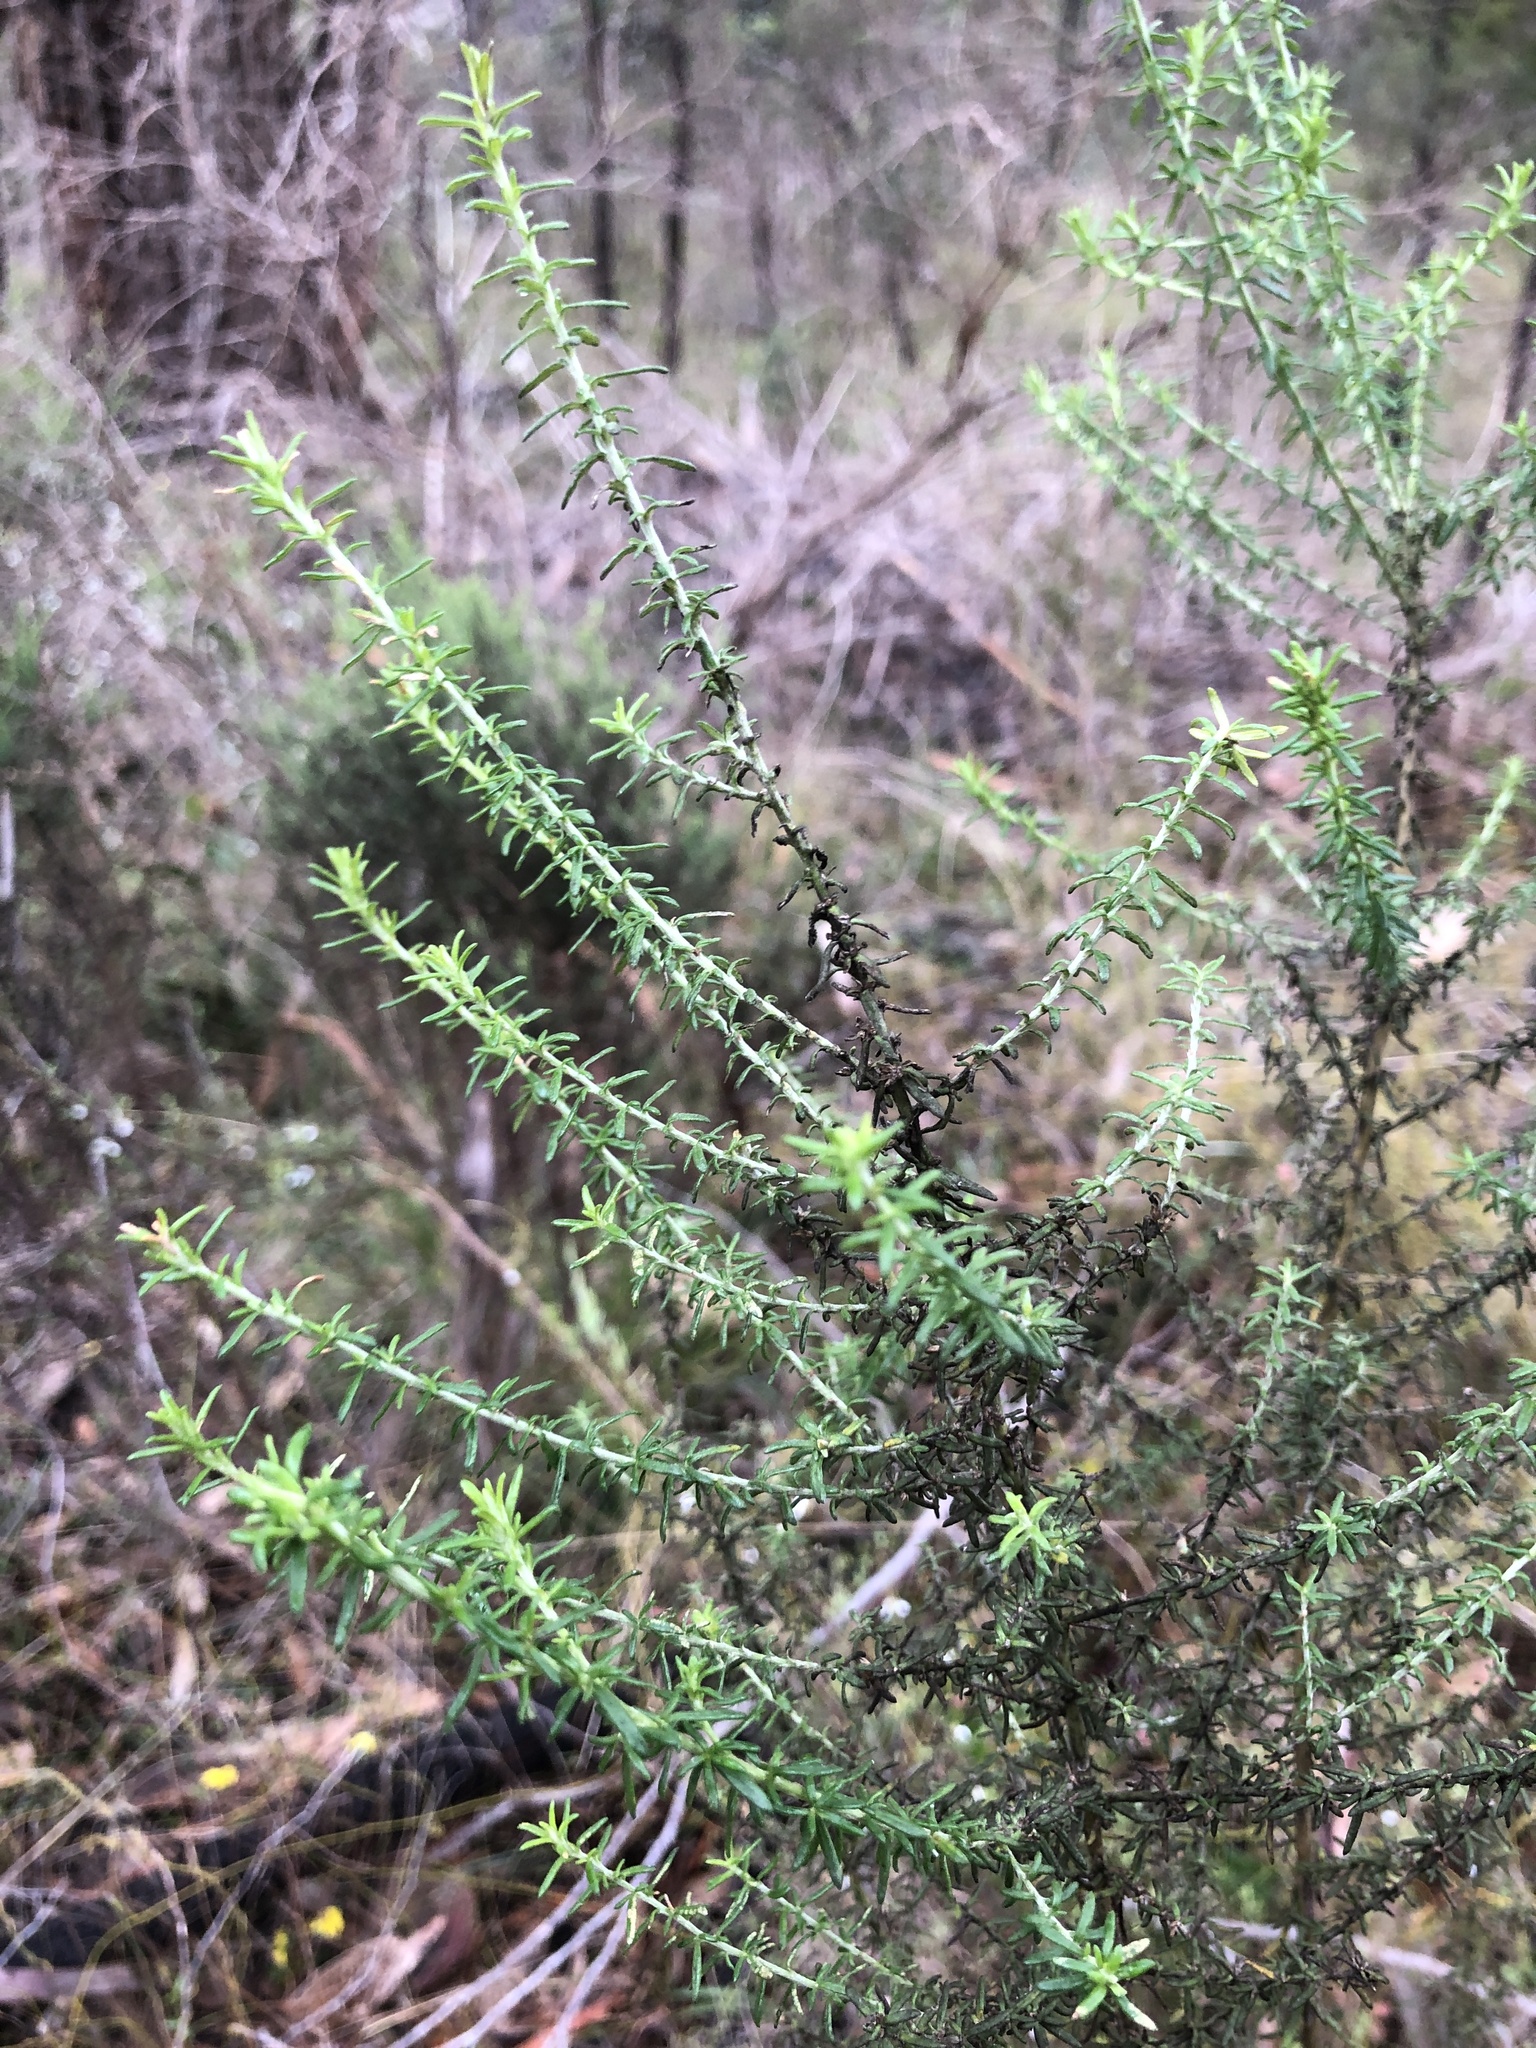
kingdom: Plantae
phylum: Tracheophyta
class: Magnoliopsida
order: Asterales
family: Asteraceae
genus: Olearia
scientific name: Olearia ramulosa
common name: Twiggy daisybush
